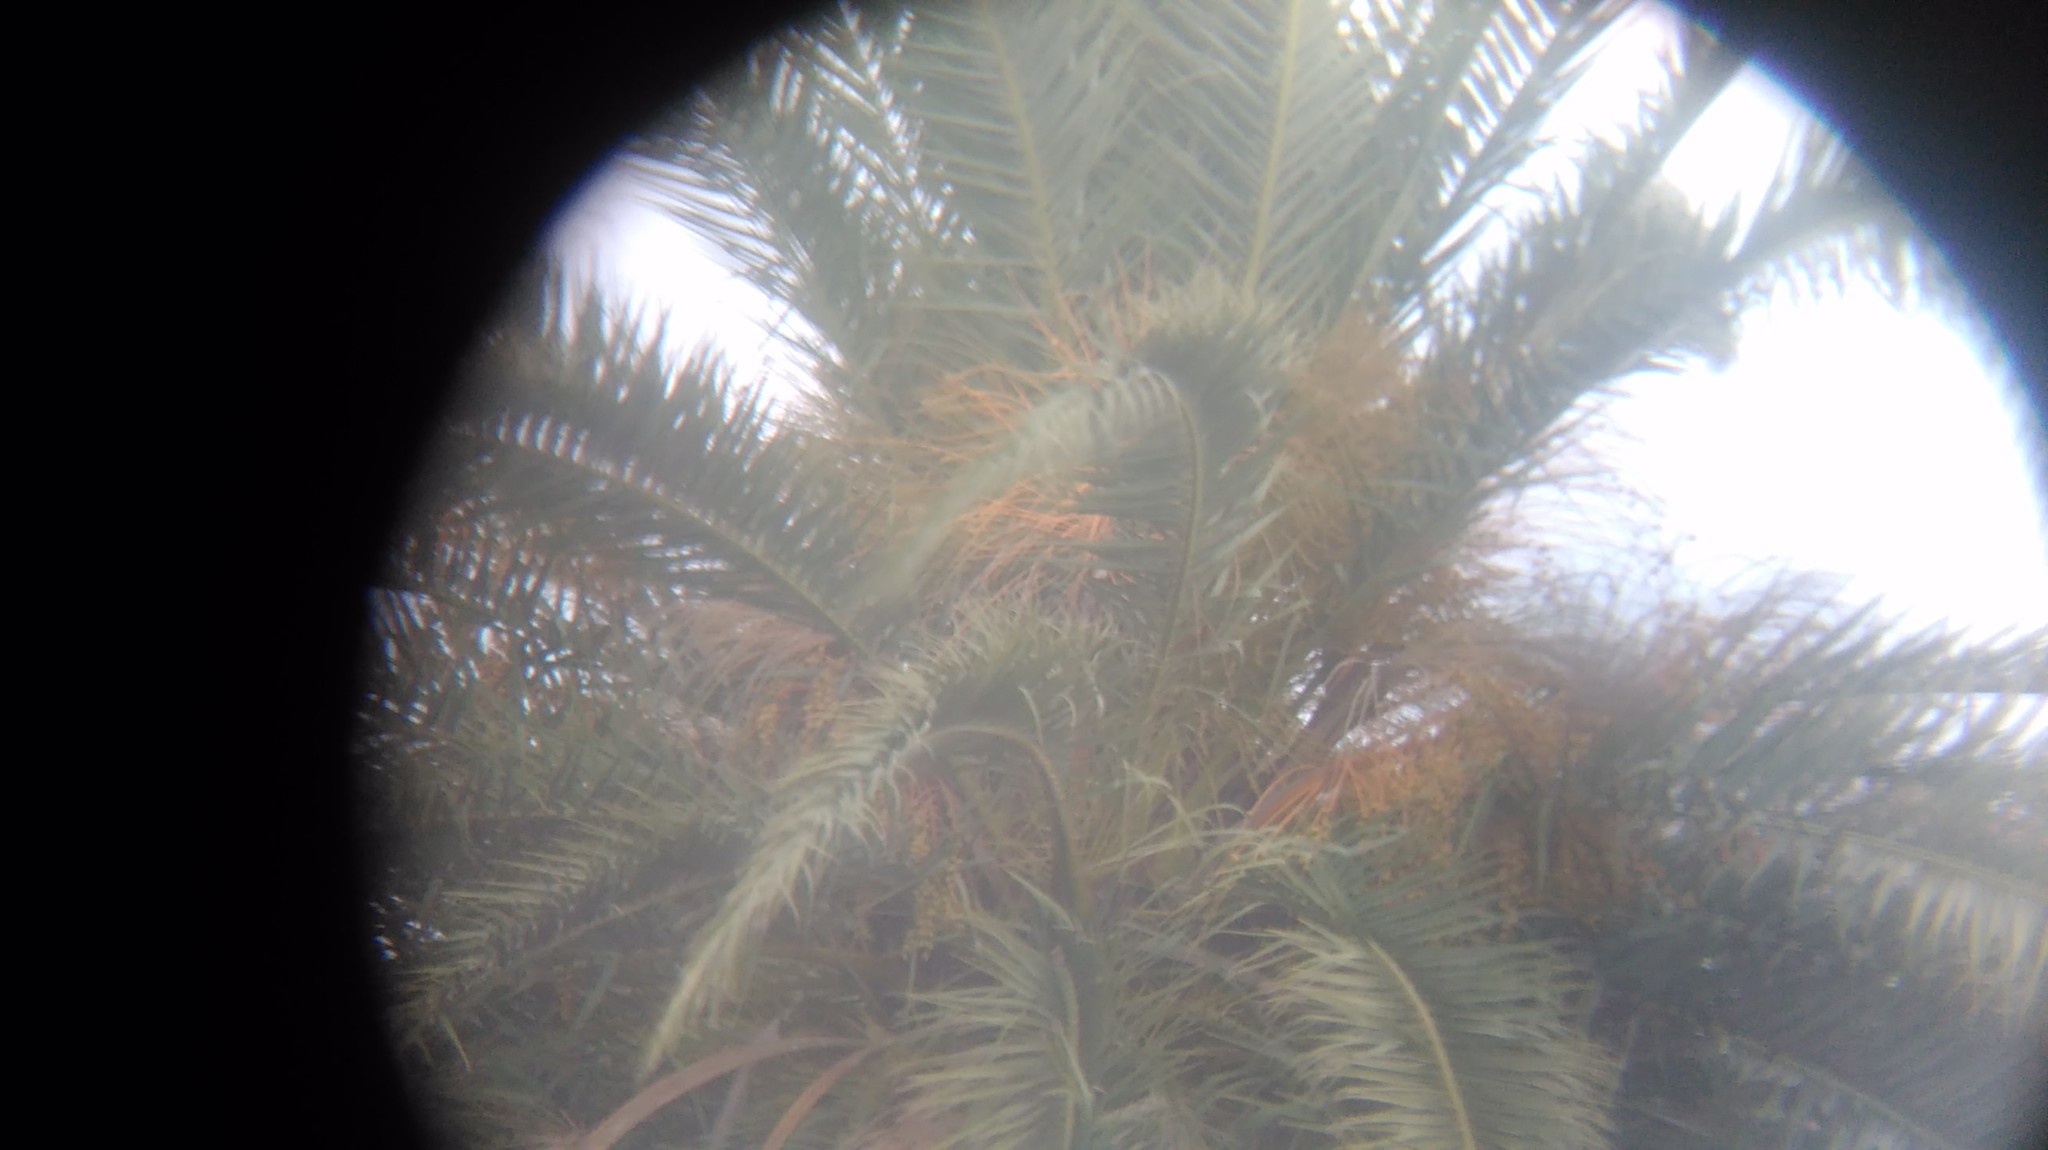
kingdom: Plantae
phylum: Tracheophyta
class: Liliopsida
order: Arecales
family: Arecaceae
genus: Phoenix
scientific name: Phoenix canariensis
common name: Canary island date palm
